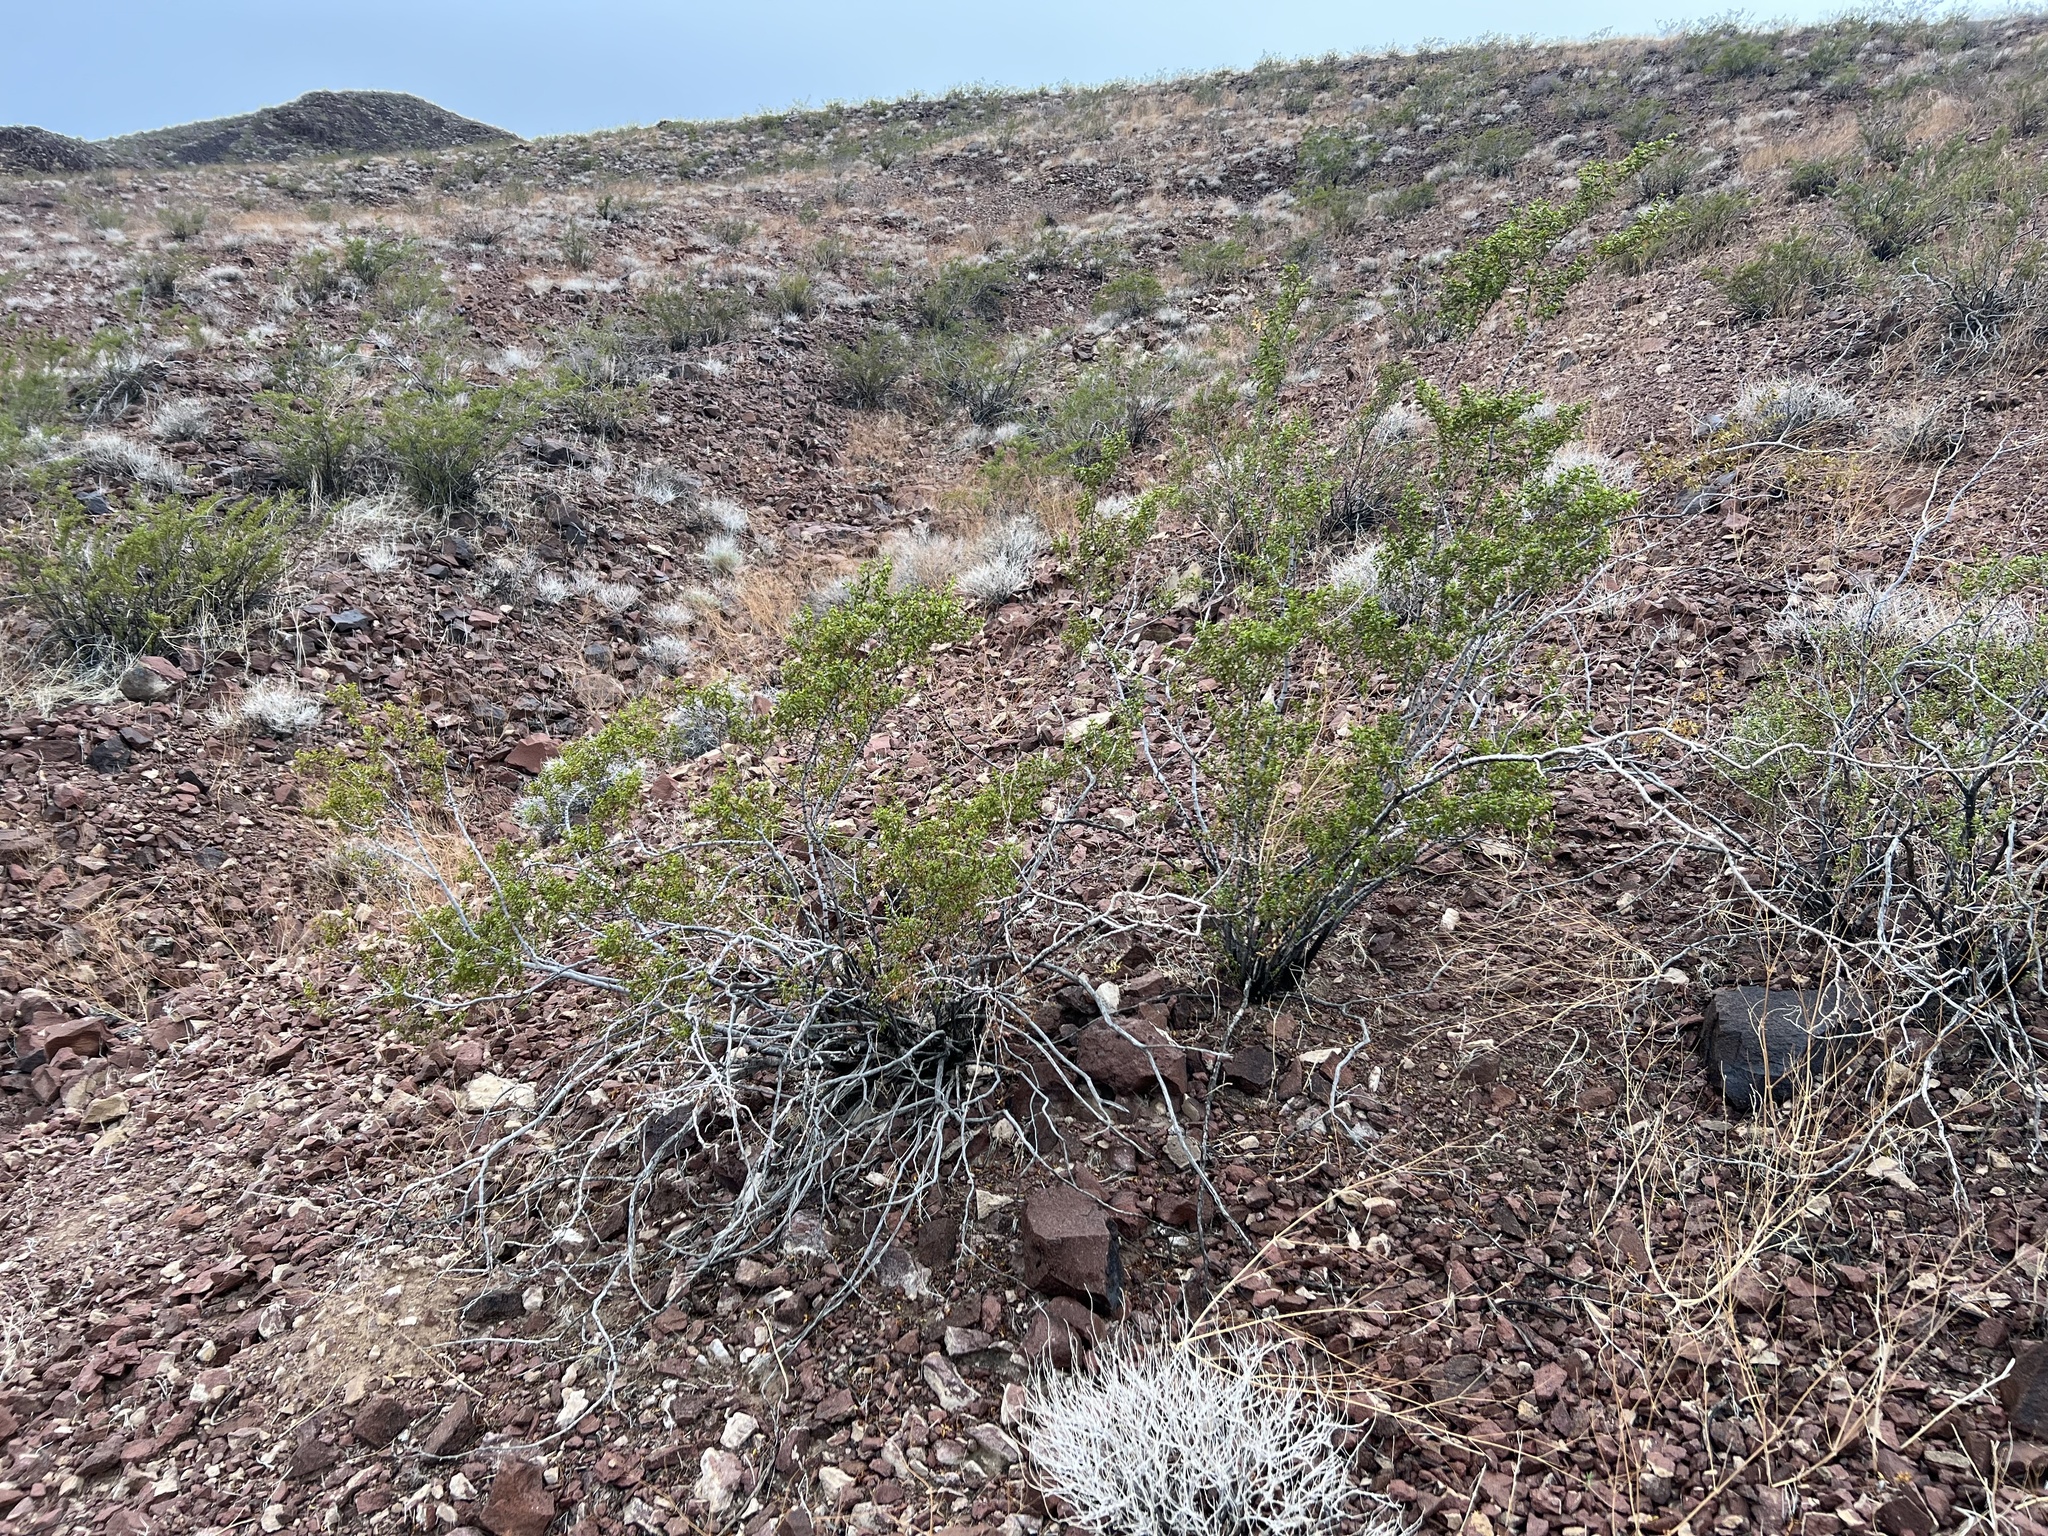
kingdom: Plantae
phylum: Tracheophyta
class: Magnoliopsida
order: Zygophyllales
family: Zygophyllaceae
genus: Larrea
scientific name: Larrea tridentata
